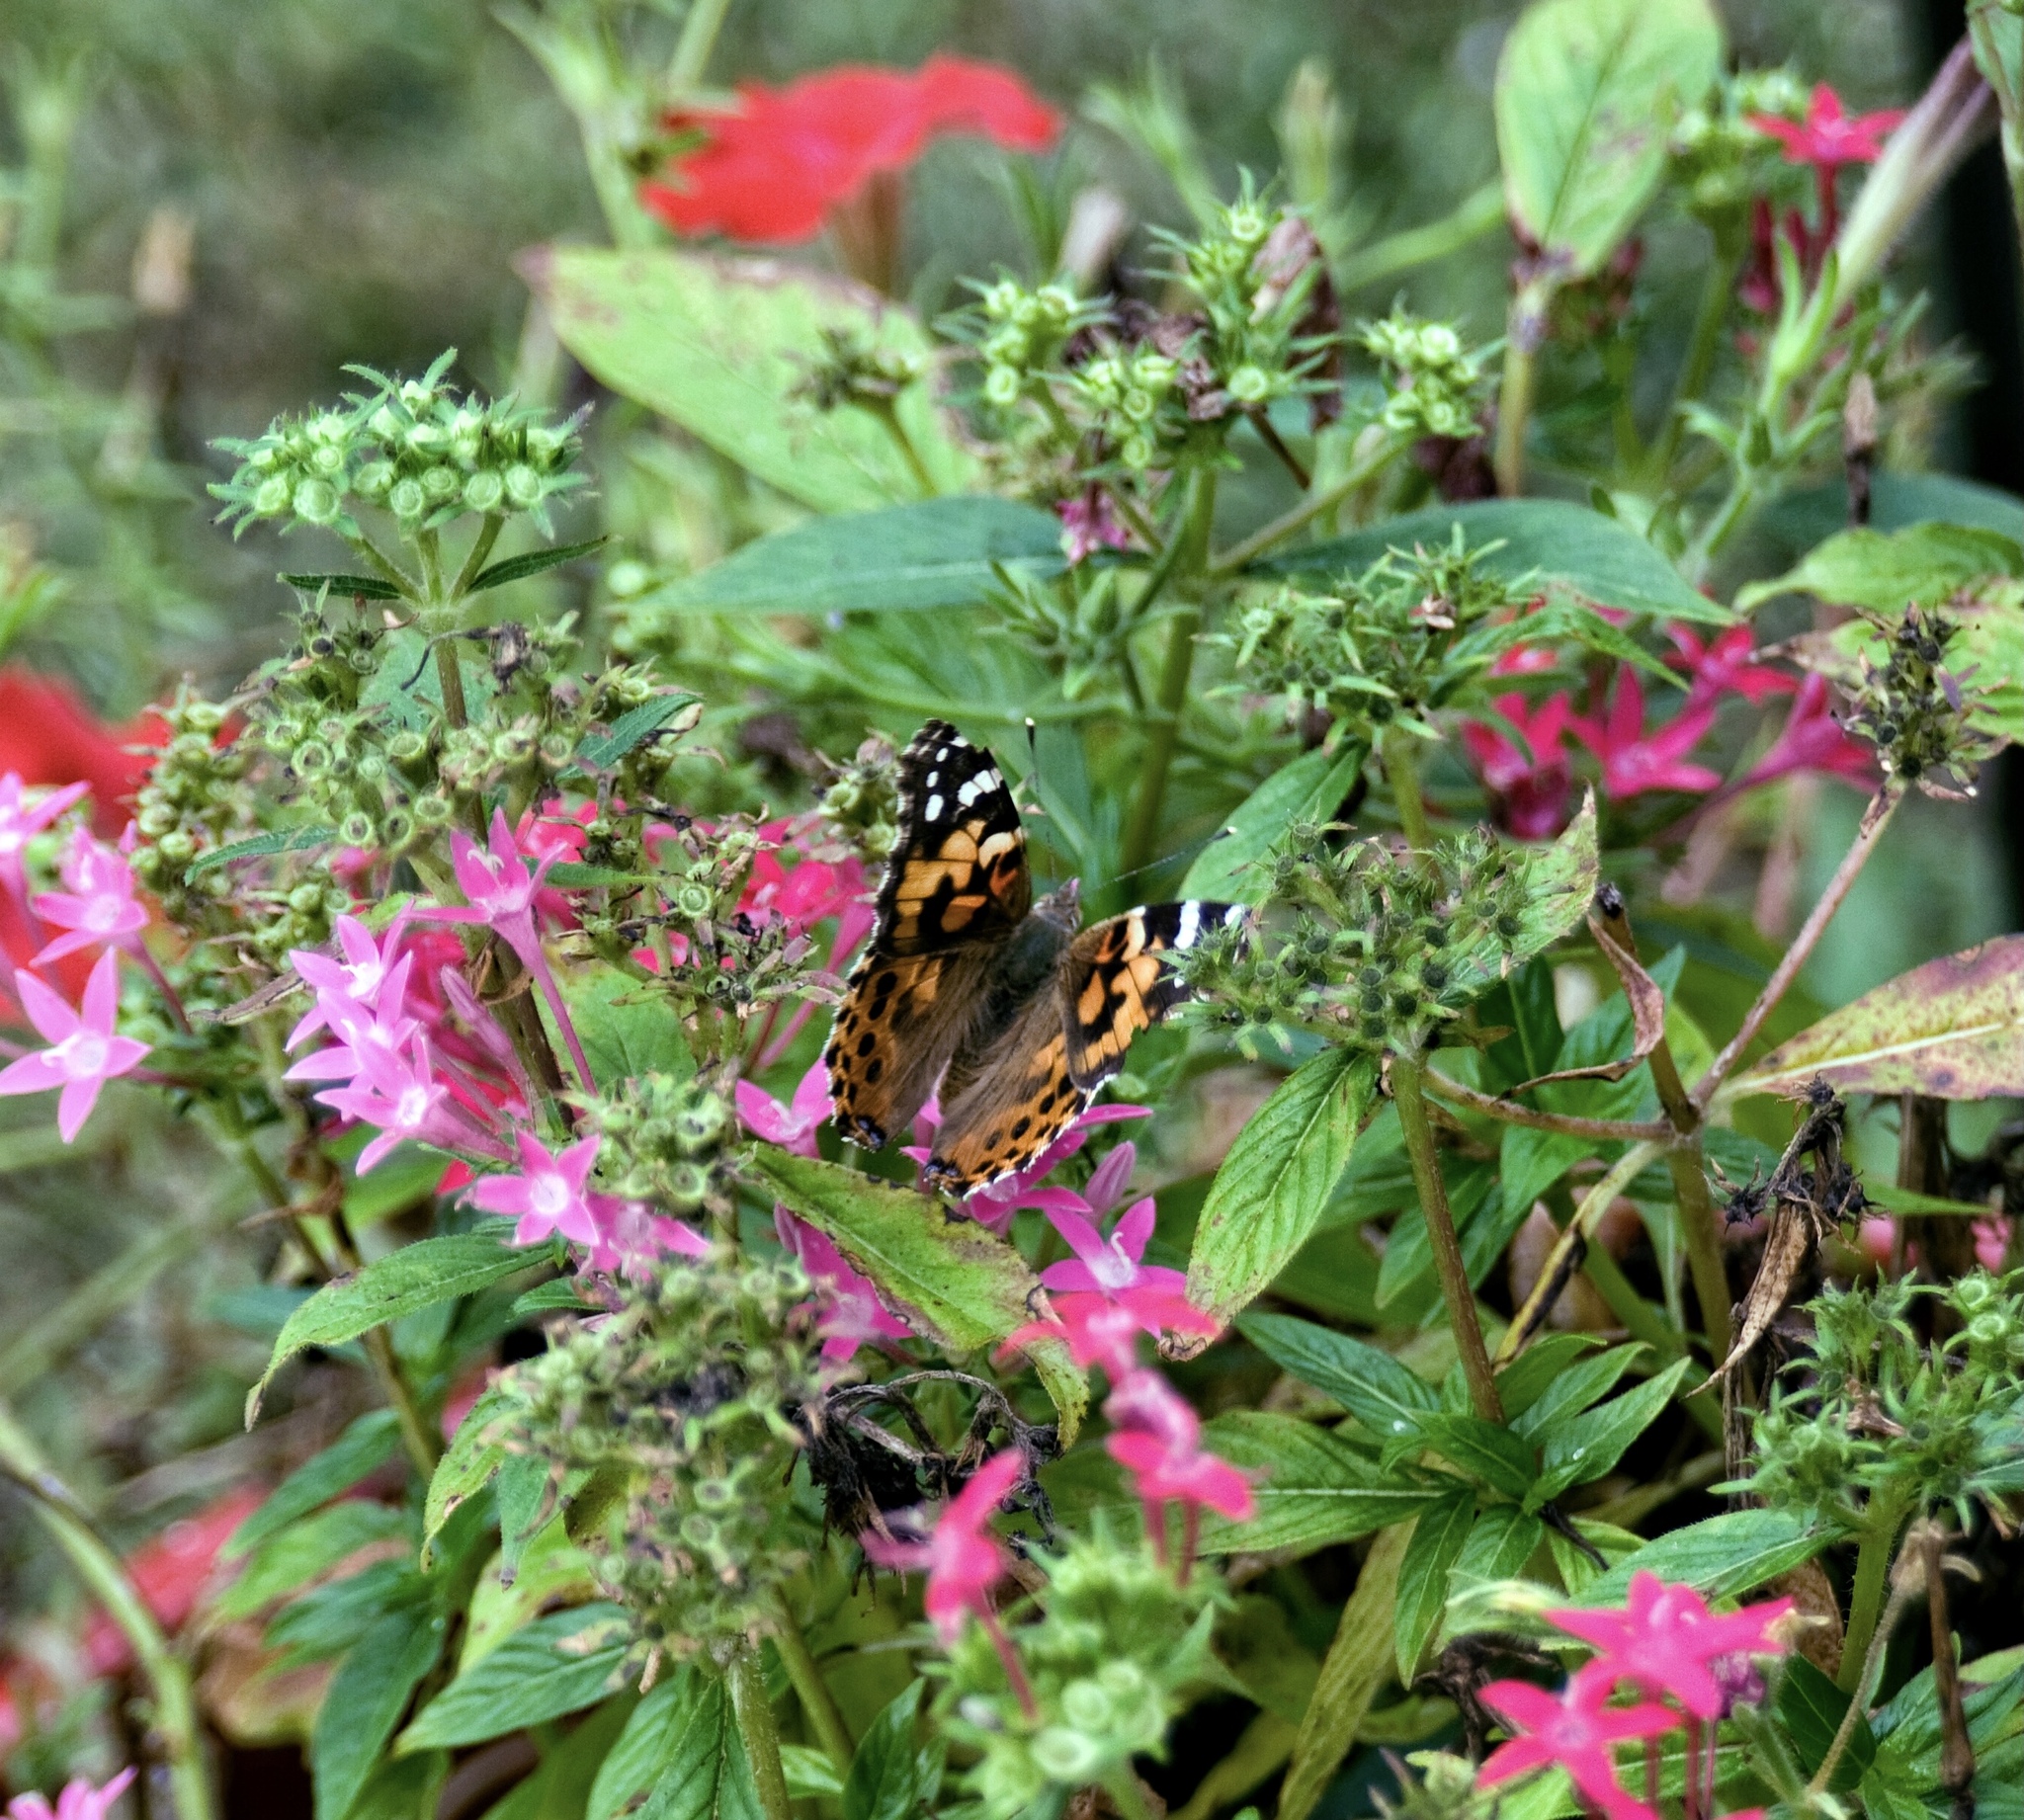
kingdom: Animalia
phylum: Arthropoda
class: Insecta
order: Lepidoptera
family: Nymphalidae
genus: Vanessa
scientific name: Vanessa cardui
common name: Painted lady
